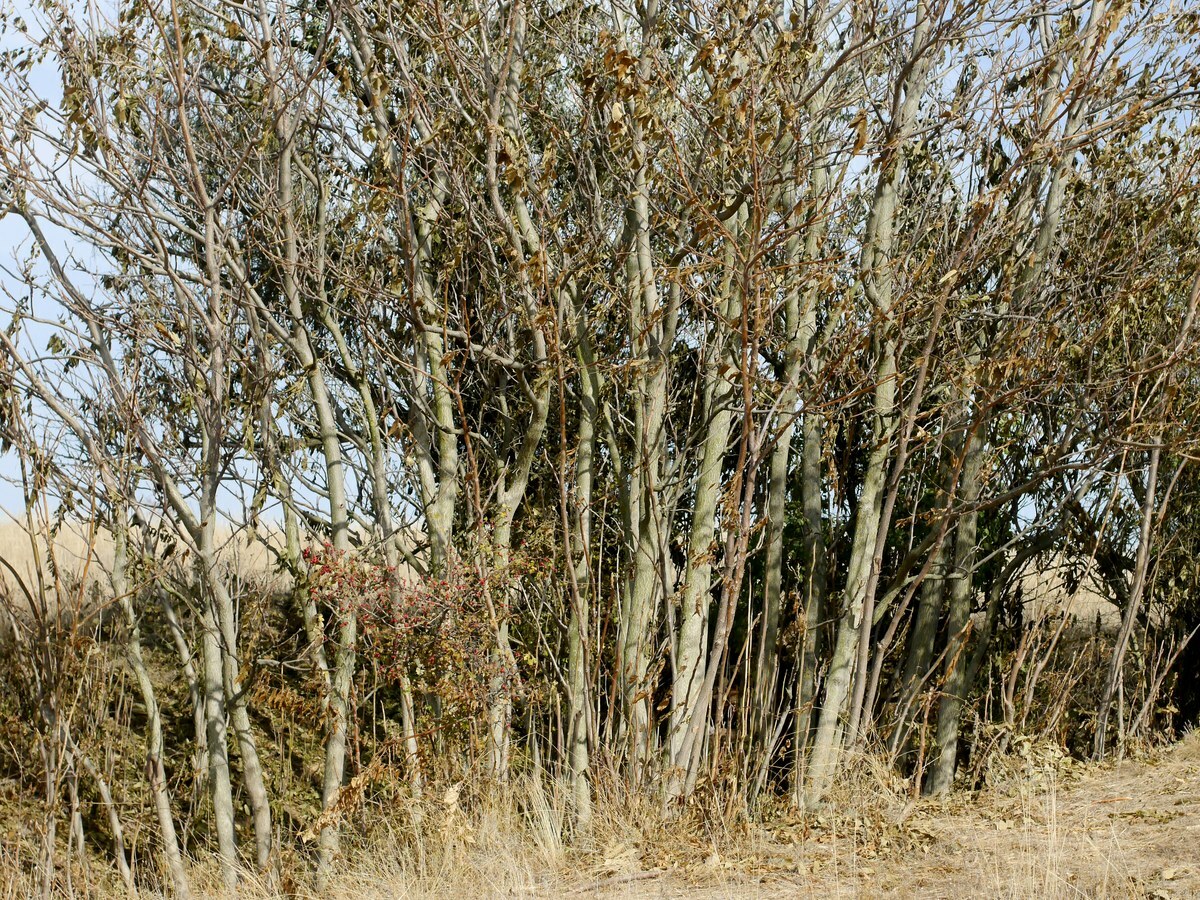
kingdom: Plantae
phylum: Tracheophyta
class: Magnoliopsida
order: Sapindales
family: Simaroubaceae
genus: Ailanthus
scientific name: Ailanthus altissima
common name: Tree-of-heaven
